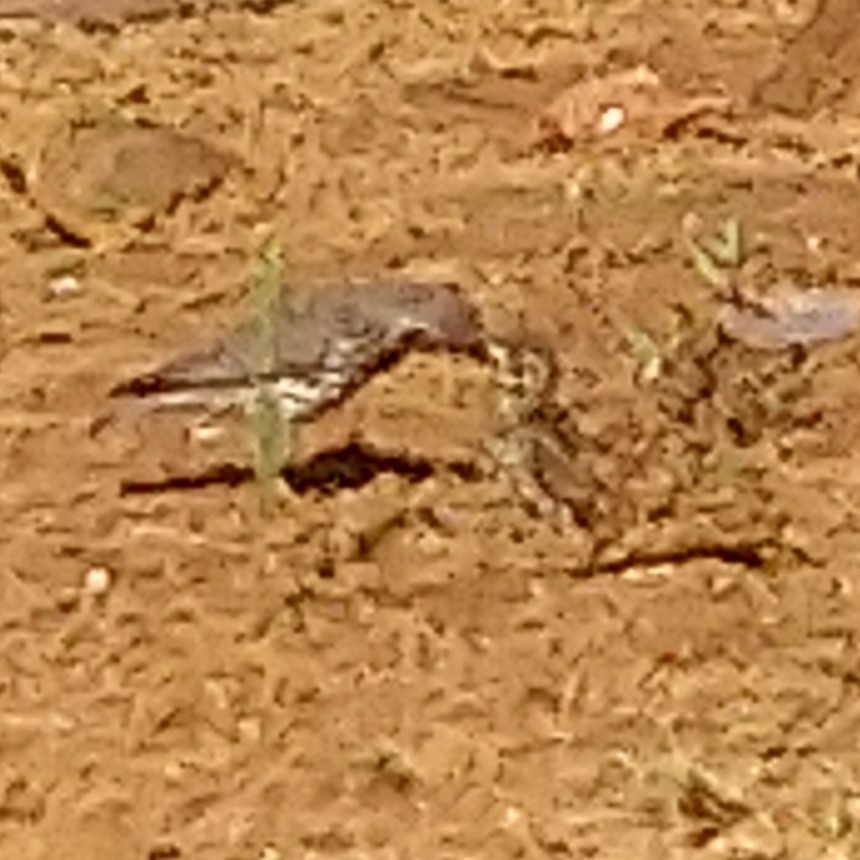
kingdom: Animalia
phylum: Chordata
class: Aves
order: Passeriformes
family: Turdidae
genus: Psophocichla
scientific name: Psophocichla litsitsirupa
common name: Groundscraper thrush
